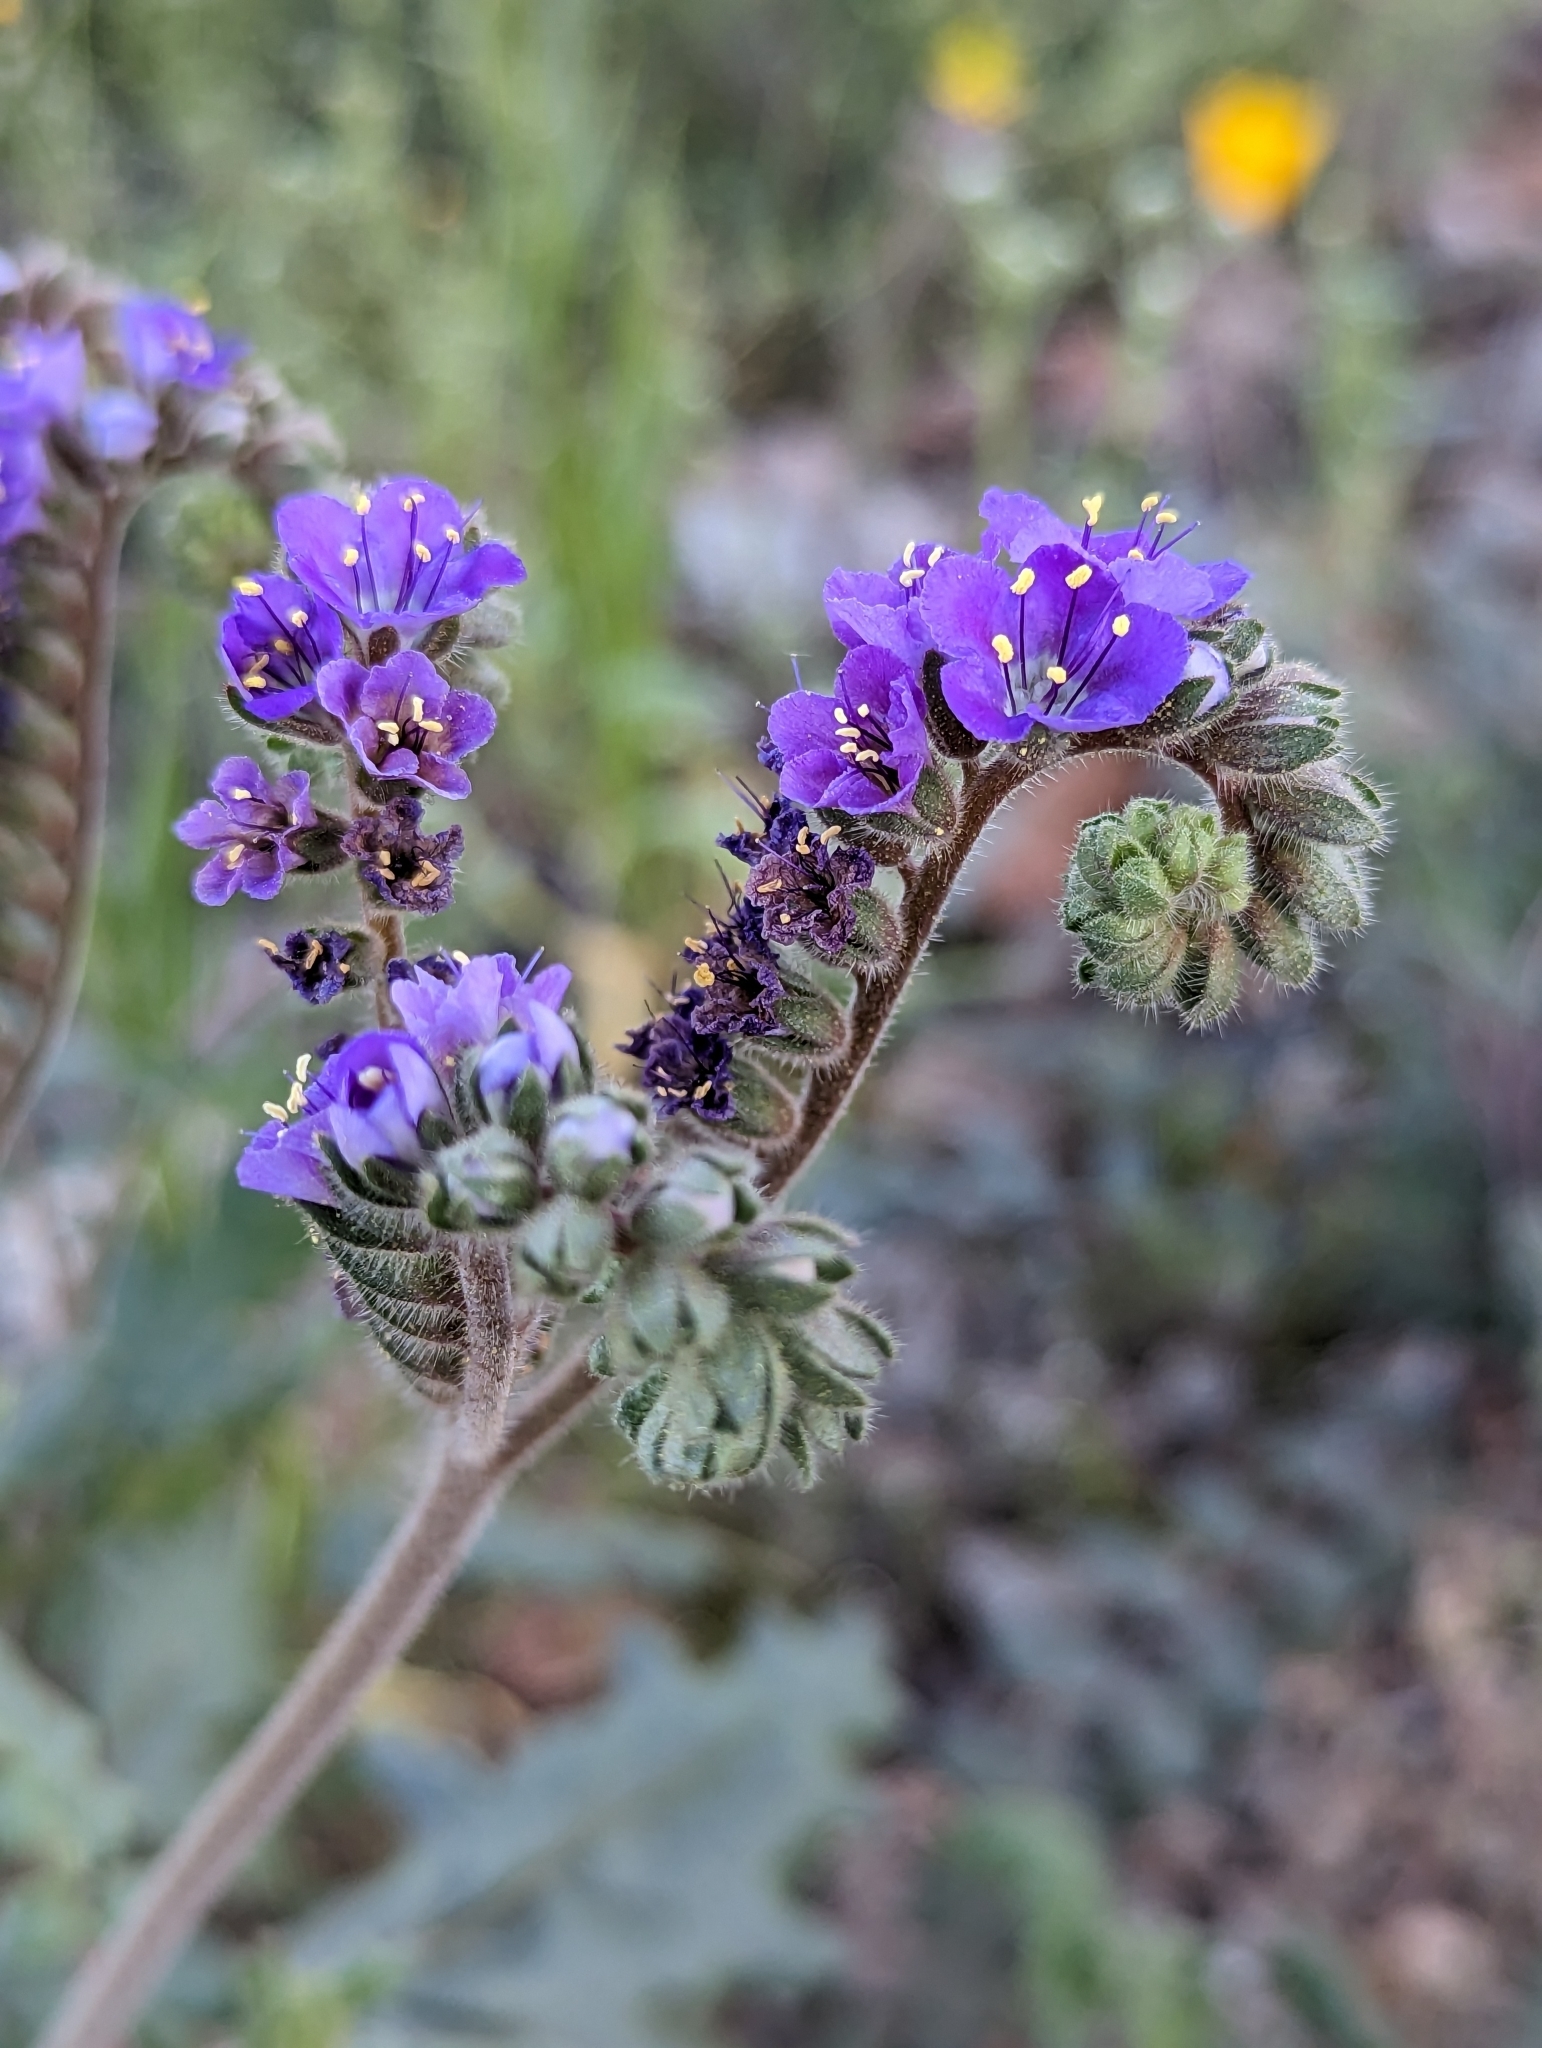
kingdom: Plantae
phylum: Tracheophyta
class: Magnoliopsida
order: Boraginales
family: Hydrophyllaceae
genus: Phacelia
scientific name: Phacelia crenulata
